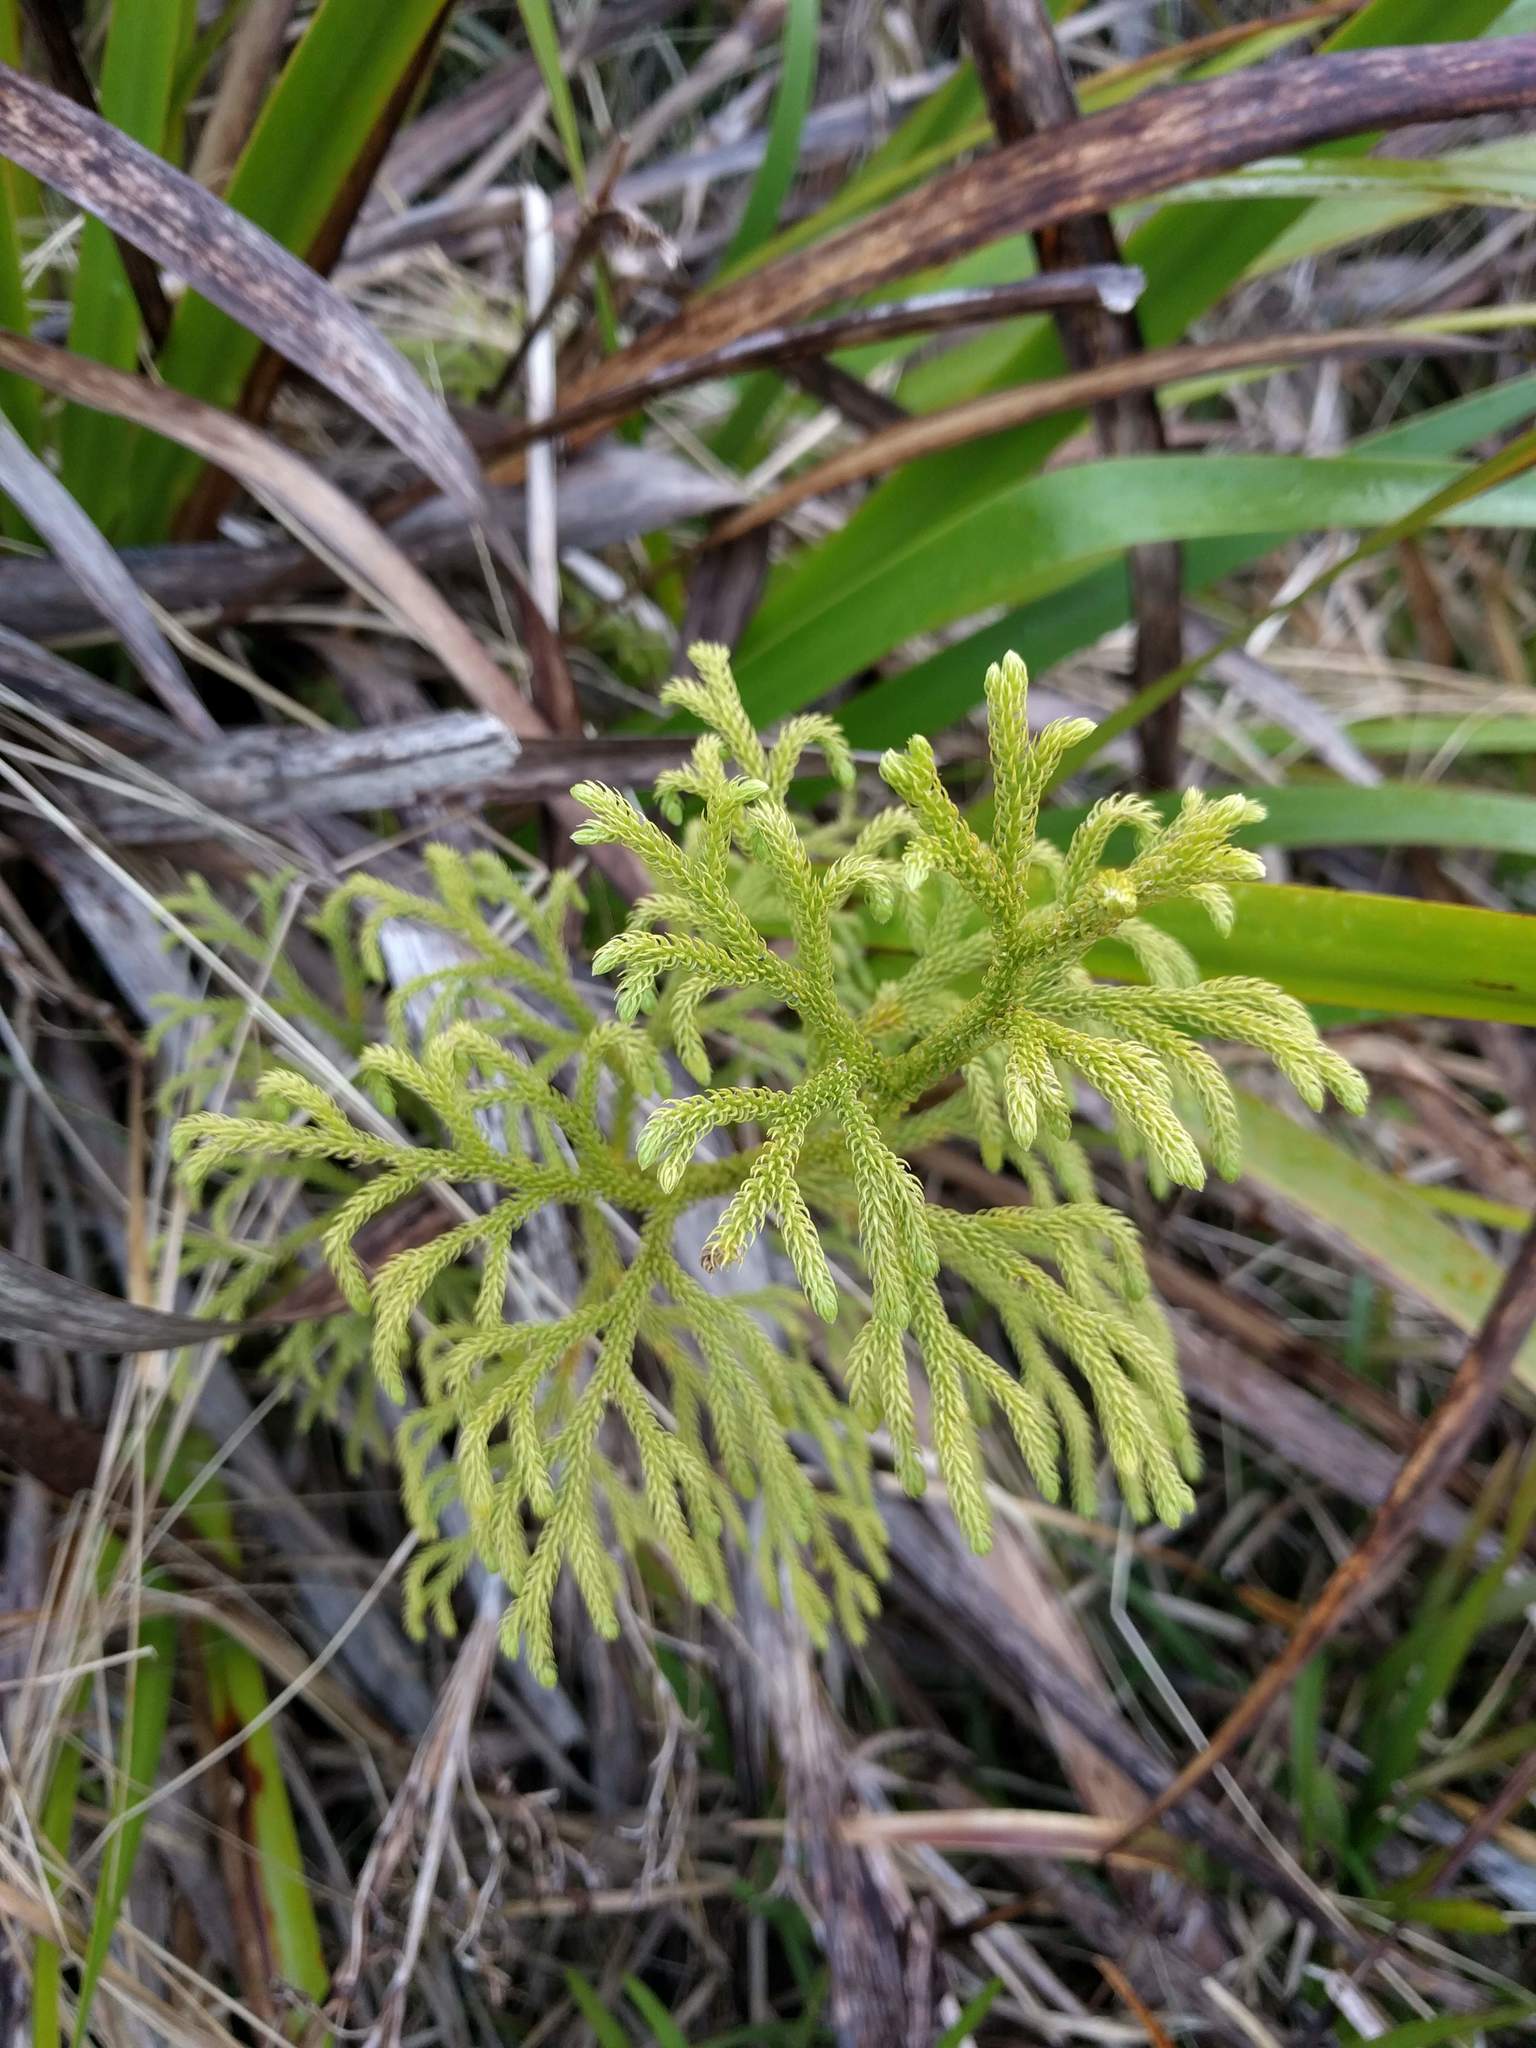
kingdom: Plantae
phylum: Tracheophyta
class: Lycopodiopsida
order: Lycopodiales
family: Lycopodiaceae
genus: Palhinhaea
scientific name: Palhinhaea cernua
